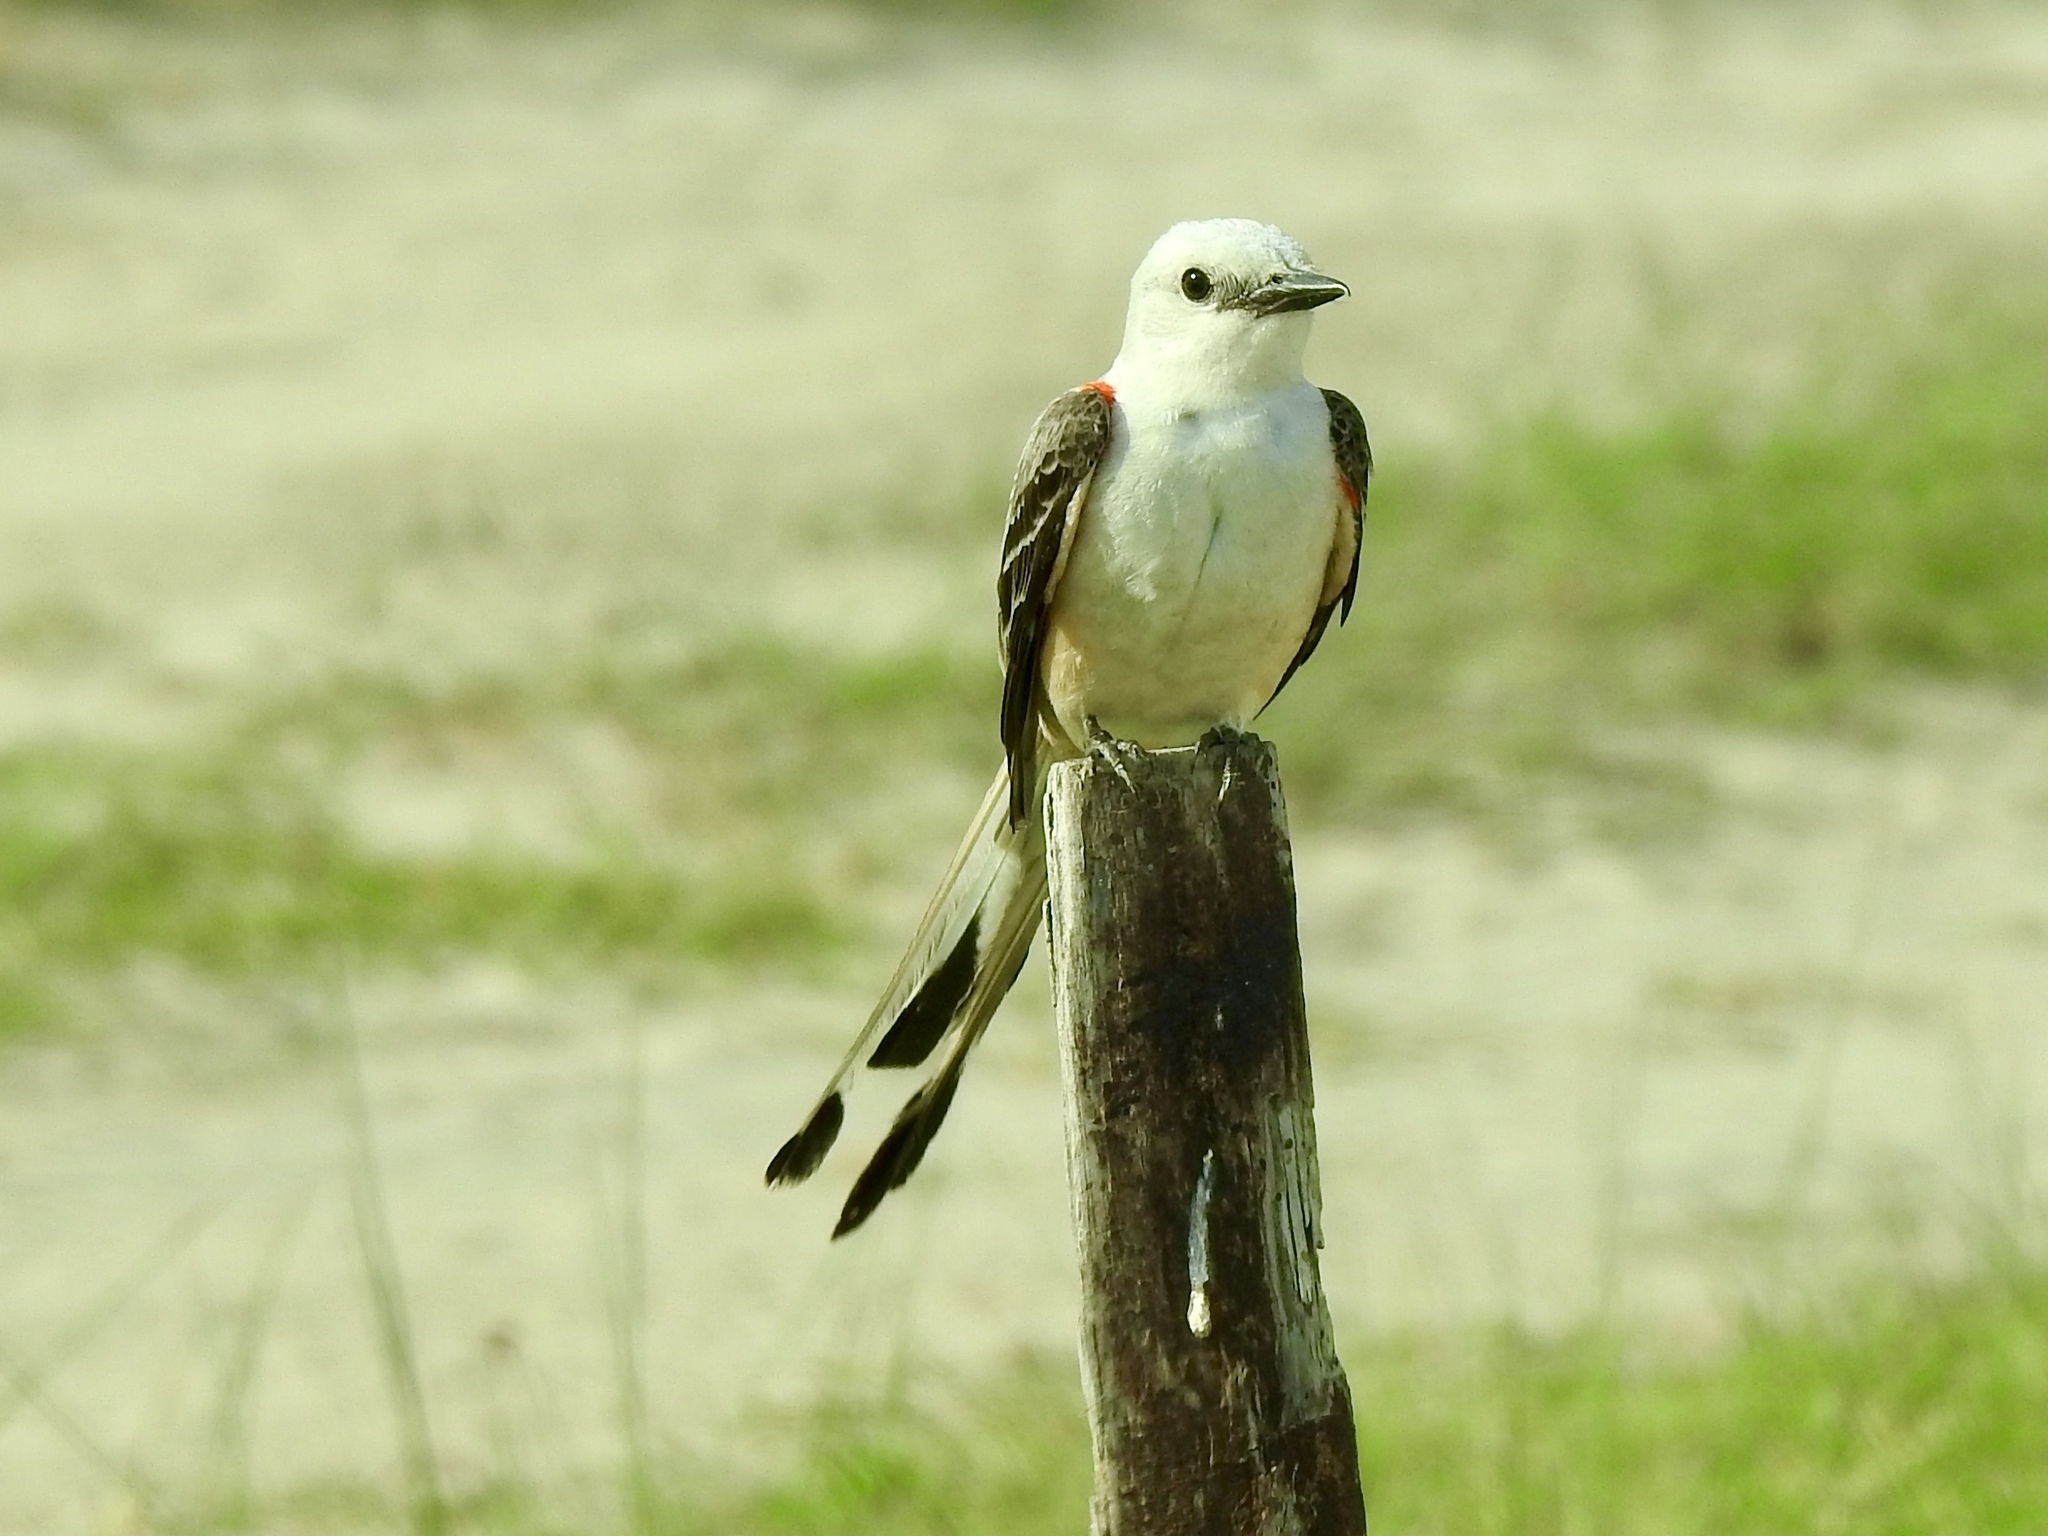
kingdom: Animalia
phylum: Chordata
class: Aves
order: Passeriformes
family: Tyrannidae
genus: Tyrannus
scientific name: Tyrannus forficatus
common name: Scissor-tailed flycatcher
